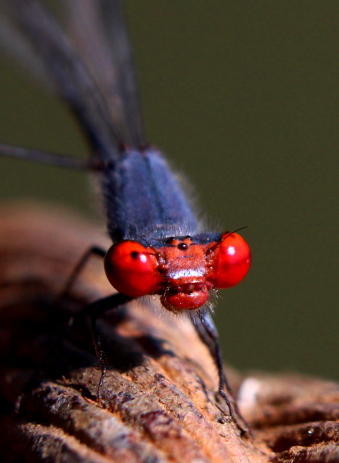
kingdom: Animalia
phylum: Arthropoda
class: Insecta
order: Odonata
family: Coenagrionidae
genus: Pseudagrion
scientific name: Pseudagrion sublacteum
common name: Cherry-eye sprite
